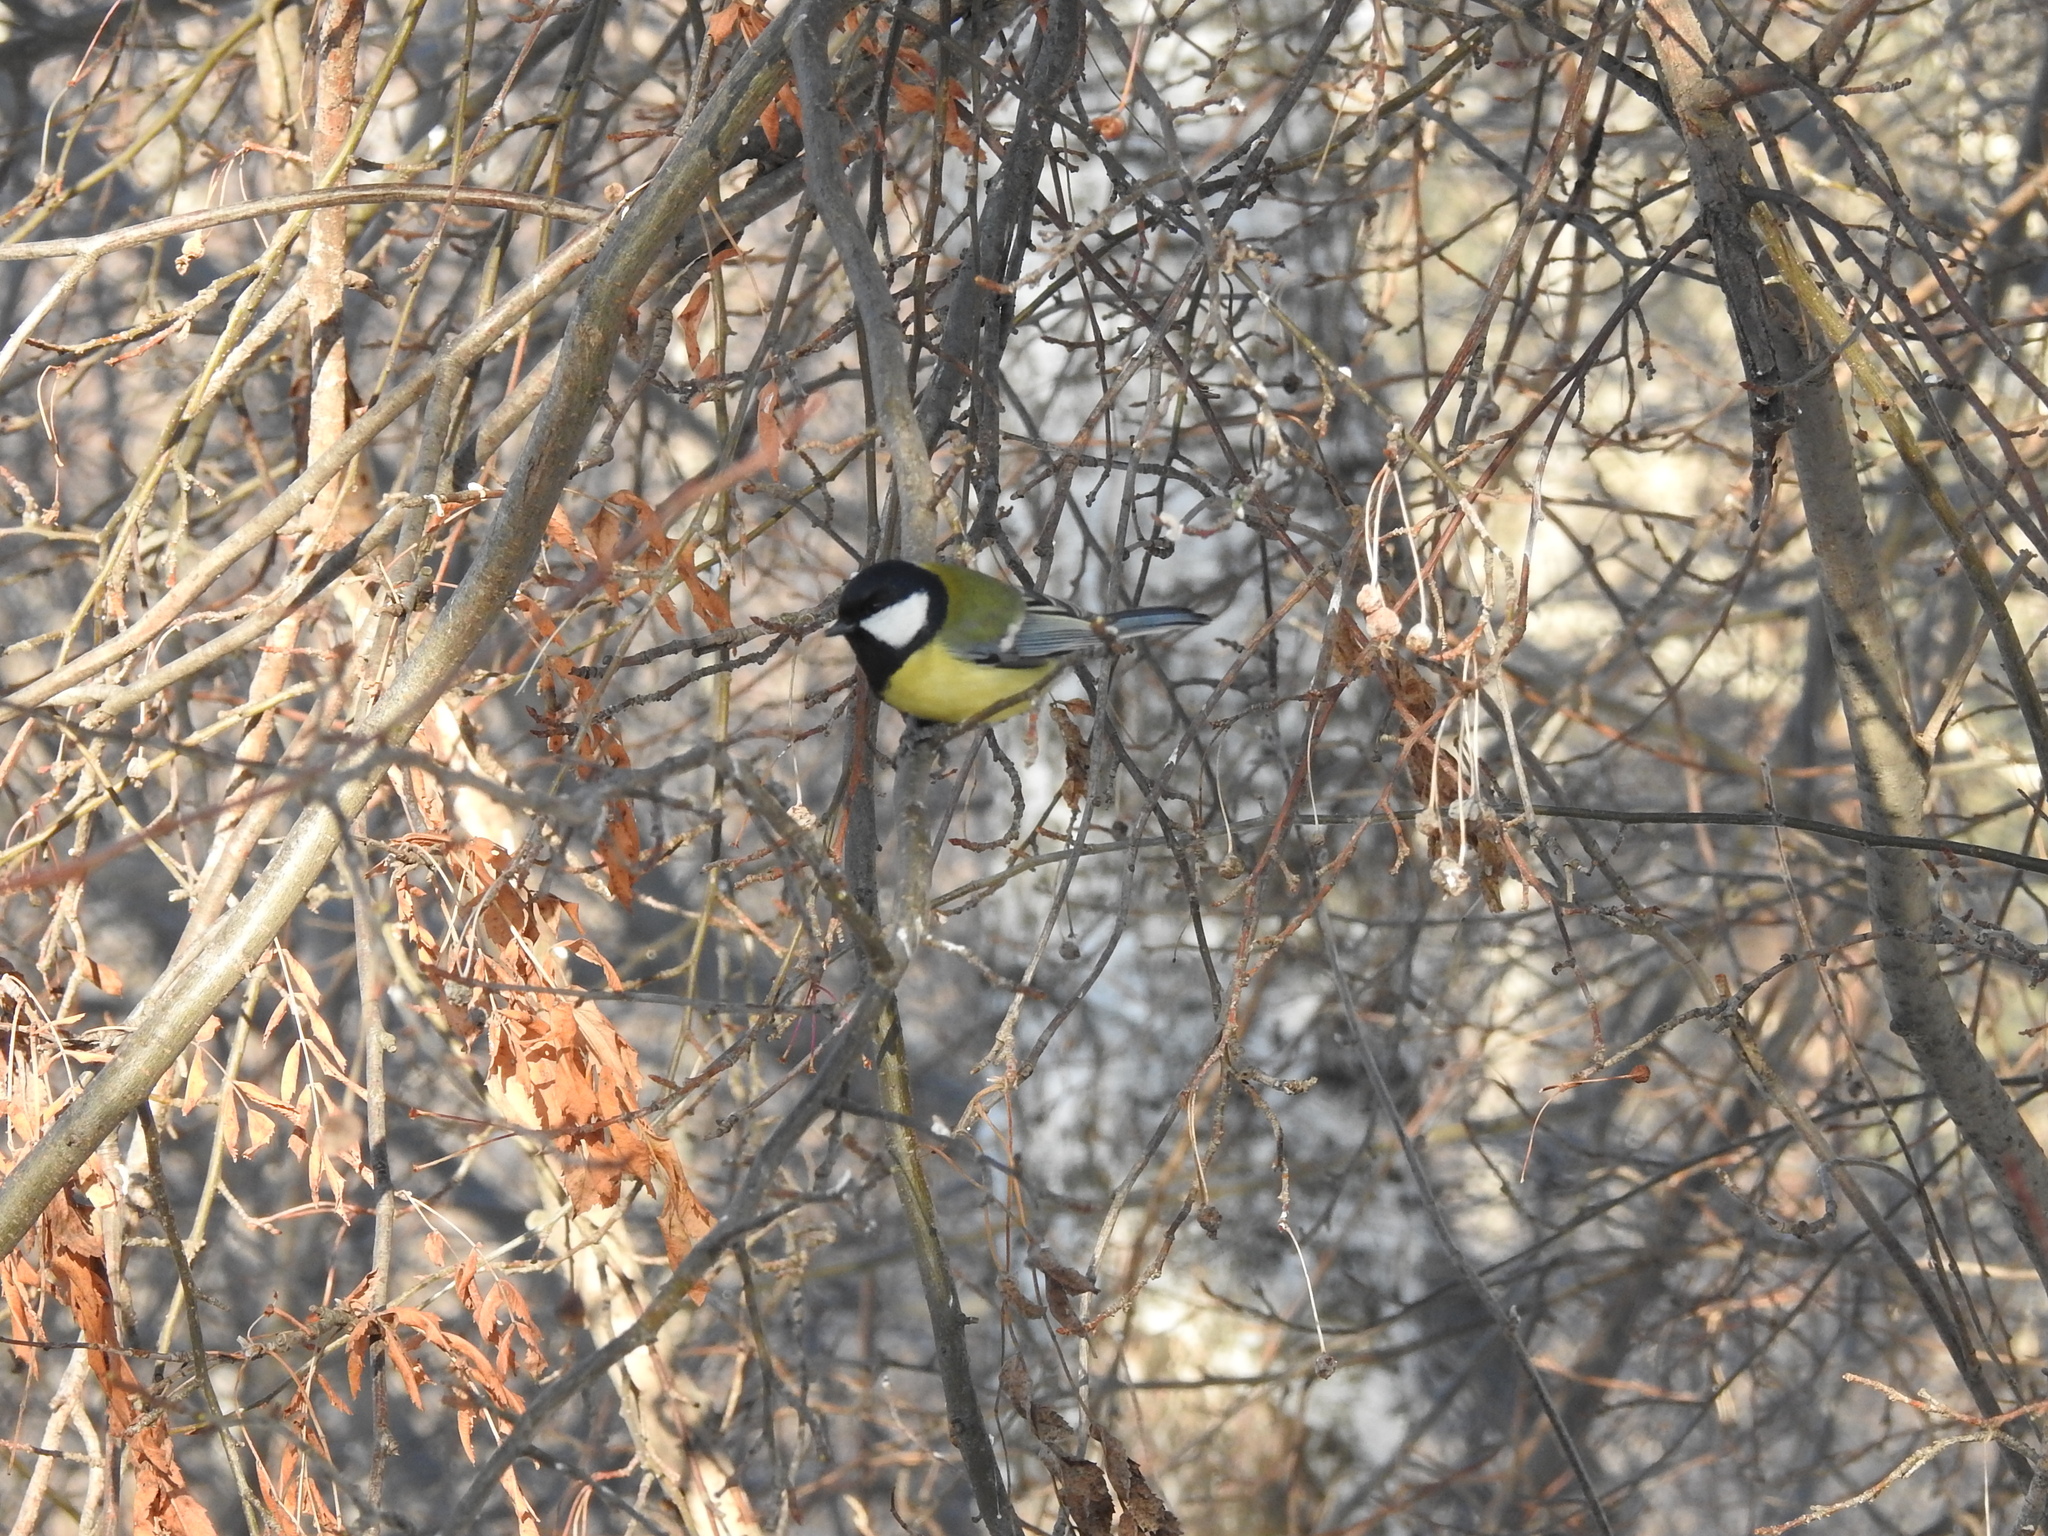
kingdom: Animalia
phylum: Chordata
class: Aves
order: Passeriformes
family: Paridae
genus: Parus
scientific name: Parus major
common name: Great tit
